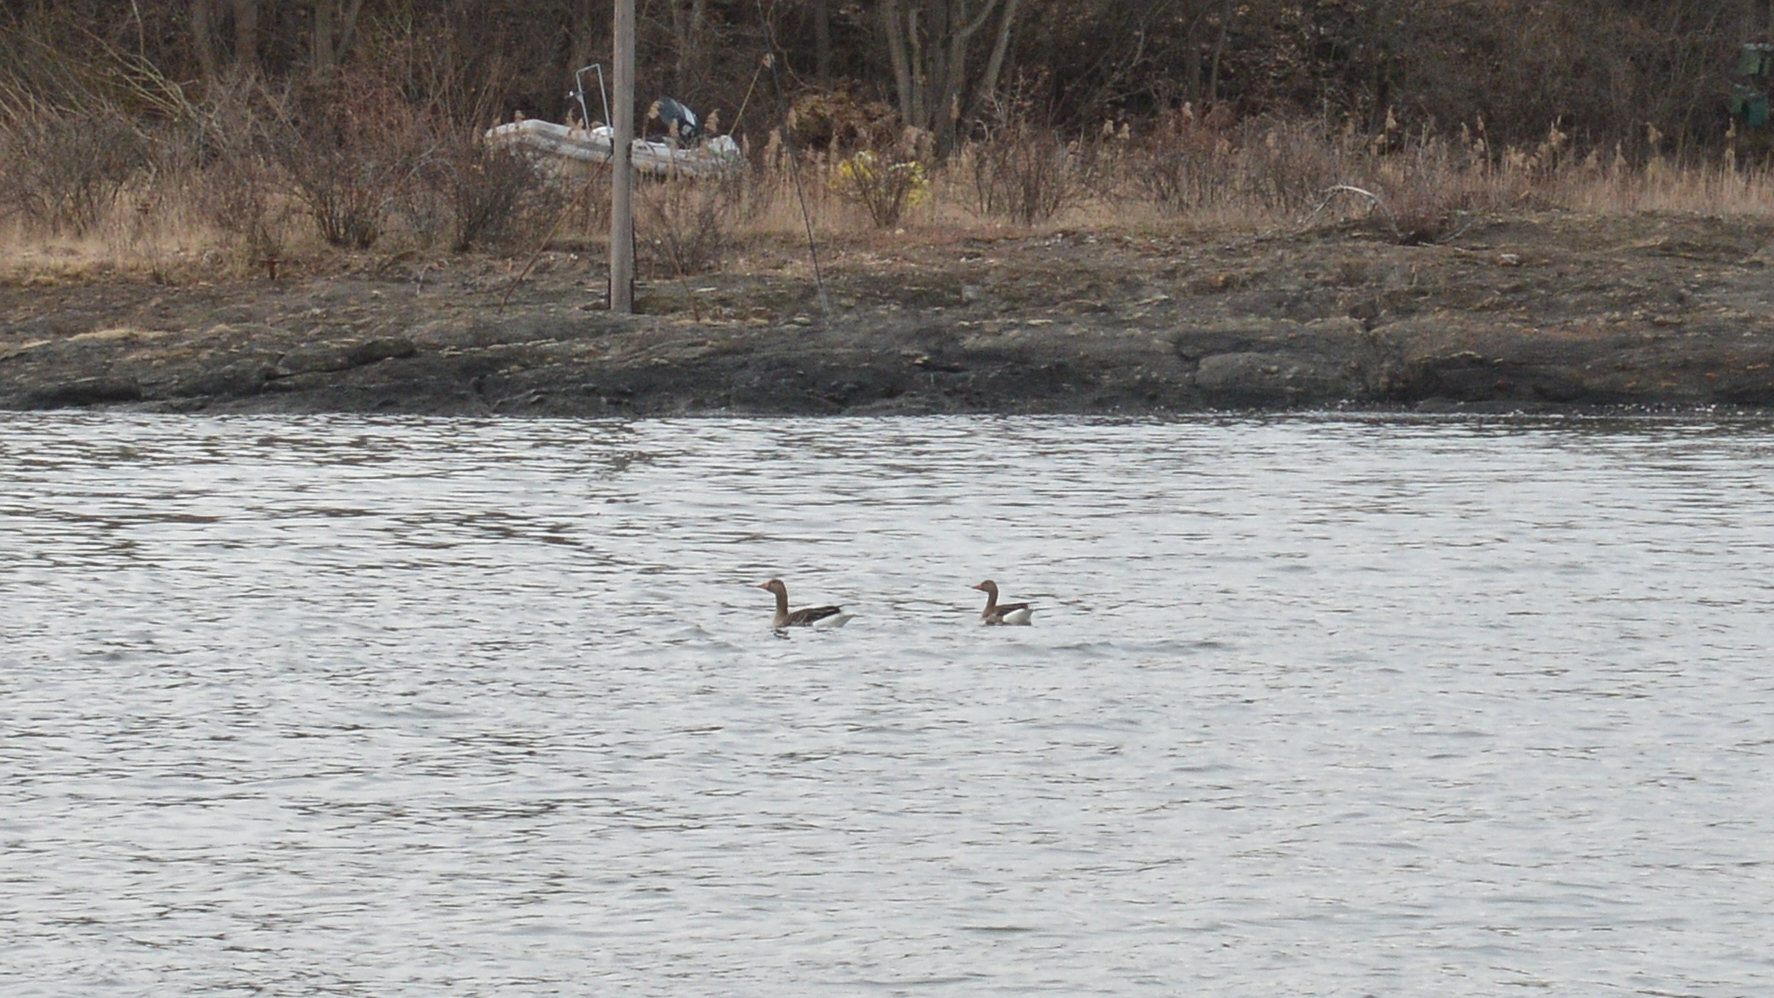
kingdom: Animalia
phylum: Chordata
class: Aves
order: Anseriformes
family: Anatidae
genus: Anser
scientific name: Anser anser
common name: Greylag goose
